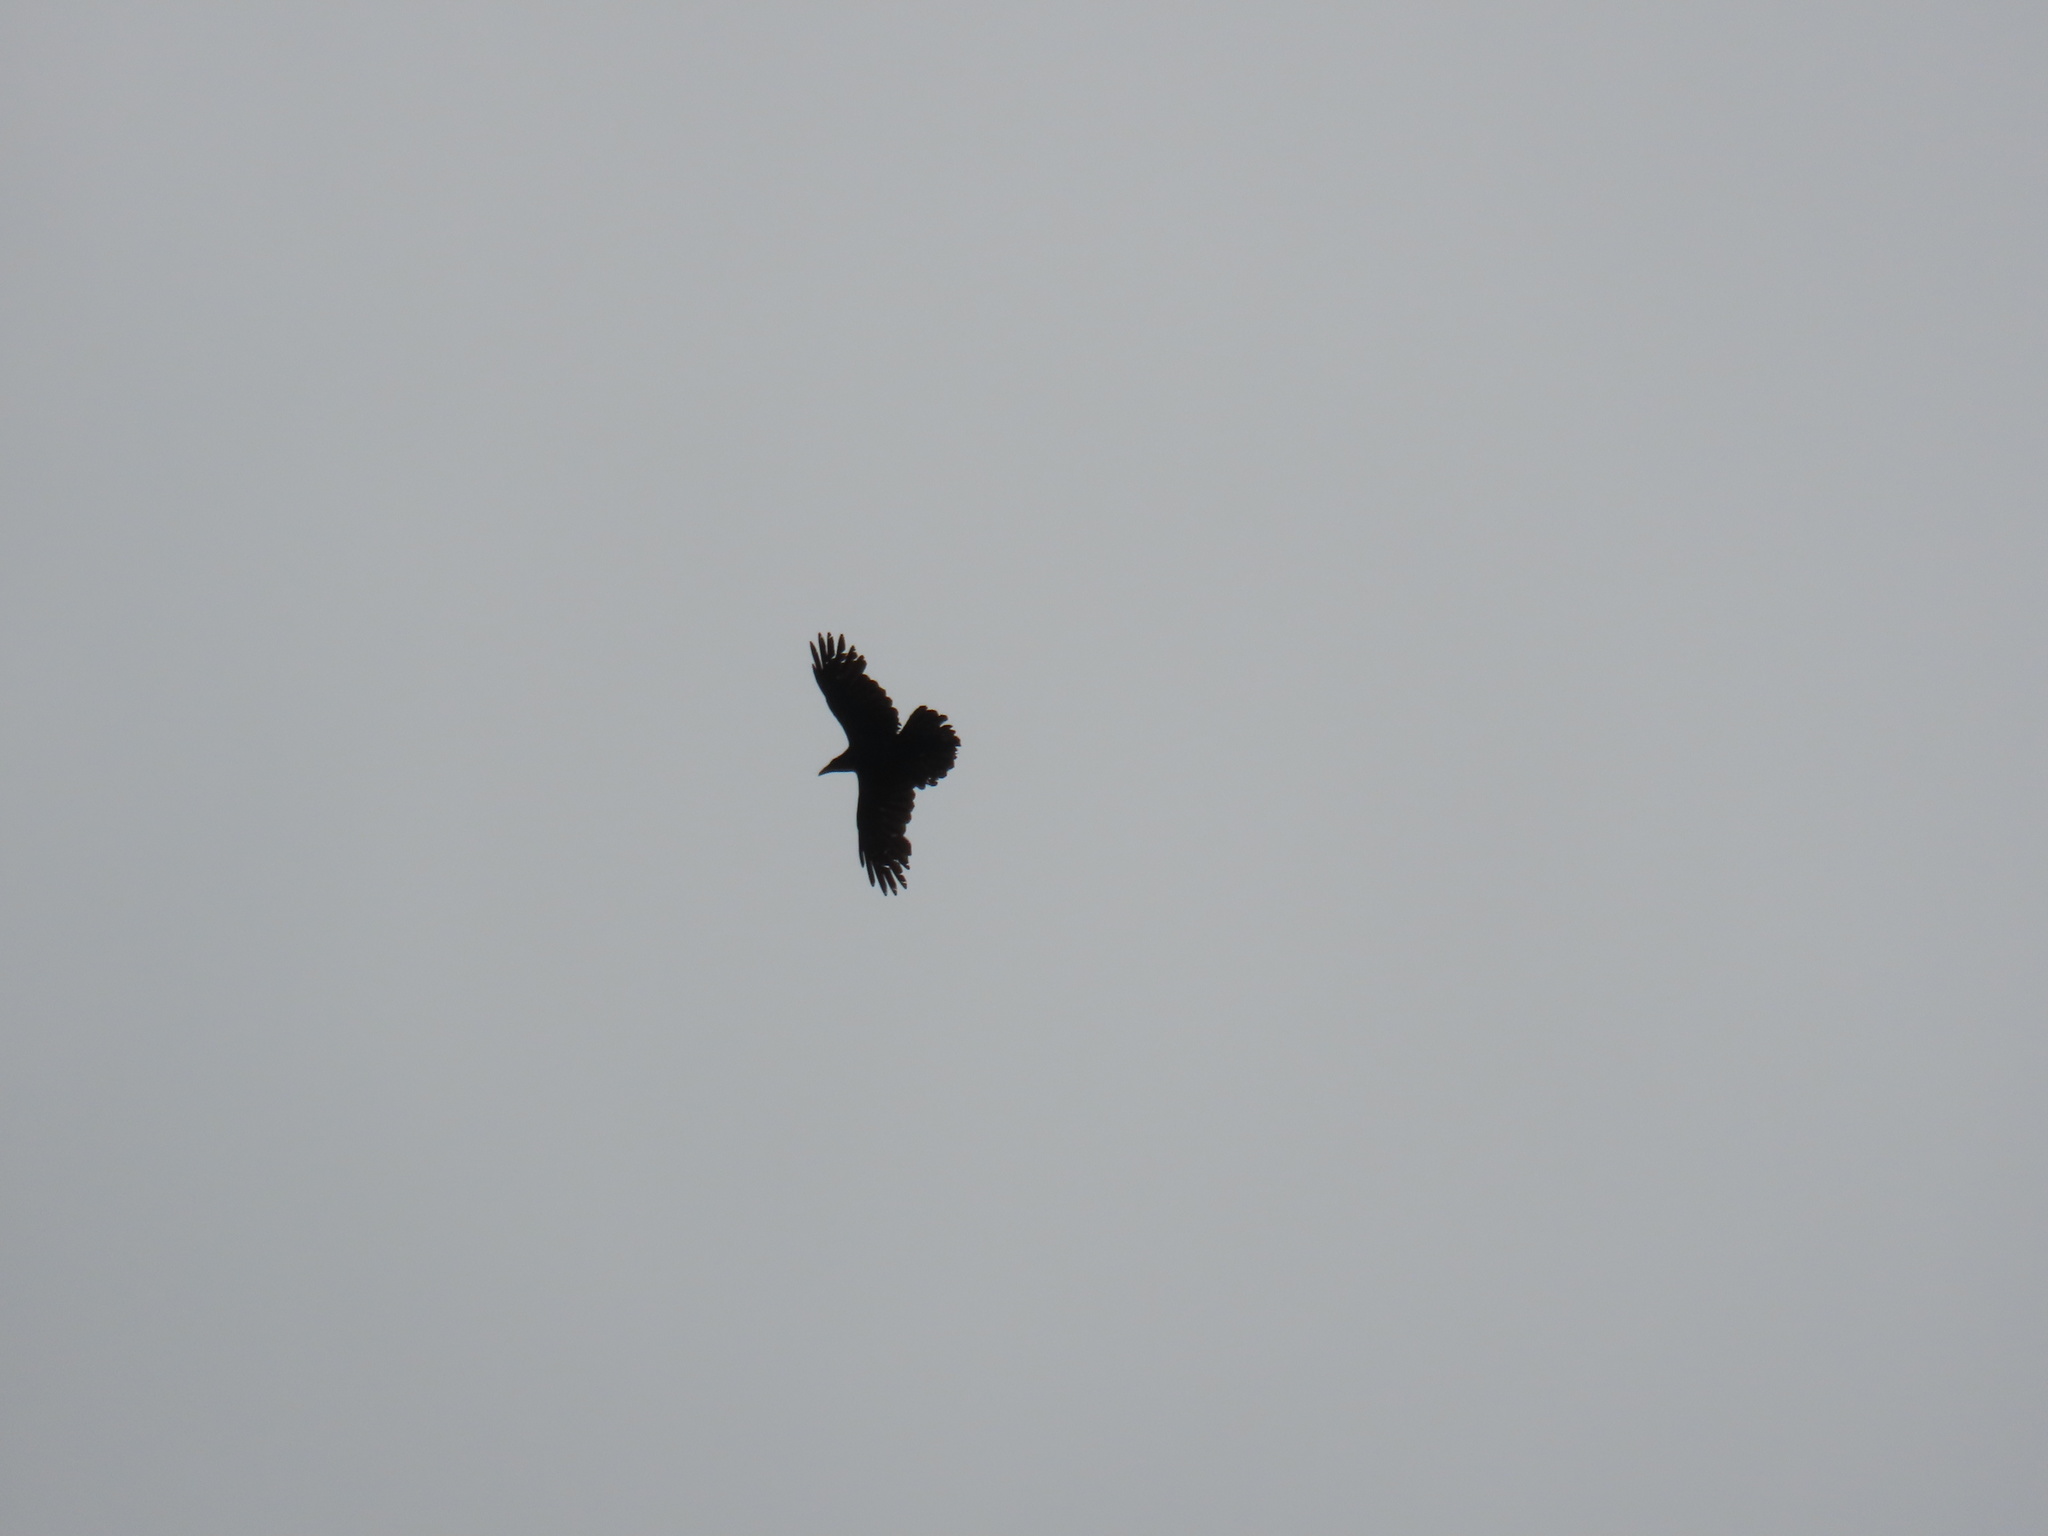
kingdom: Animalia
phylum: Chordata
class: Aves
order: Passeriformes
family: Corvidae
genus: Corvus
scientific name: Corvus corax
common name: Common raven
